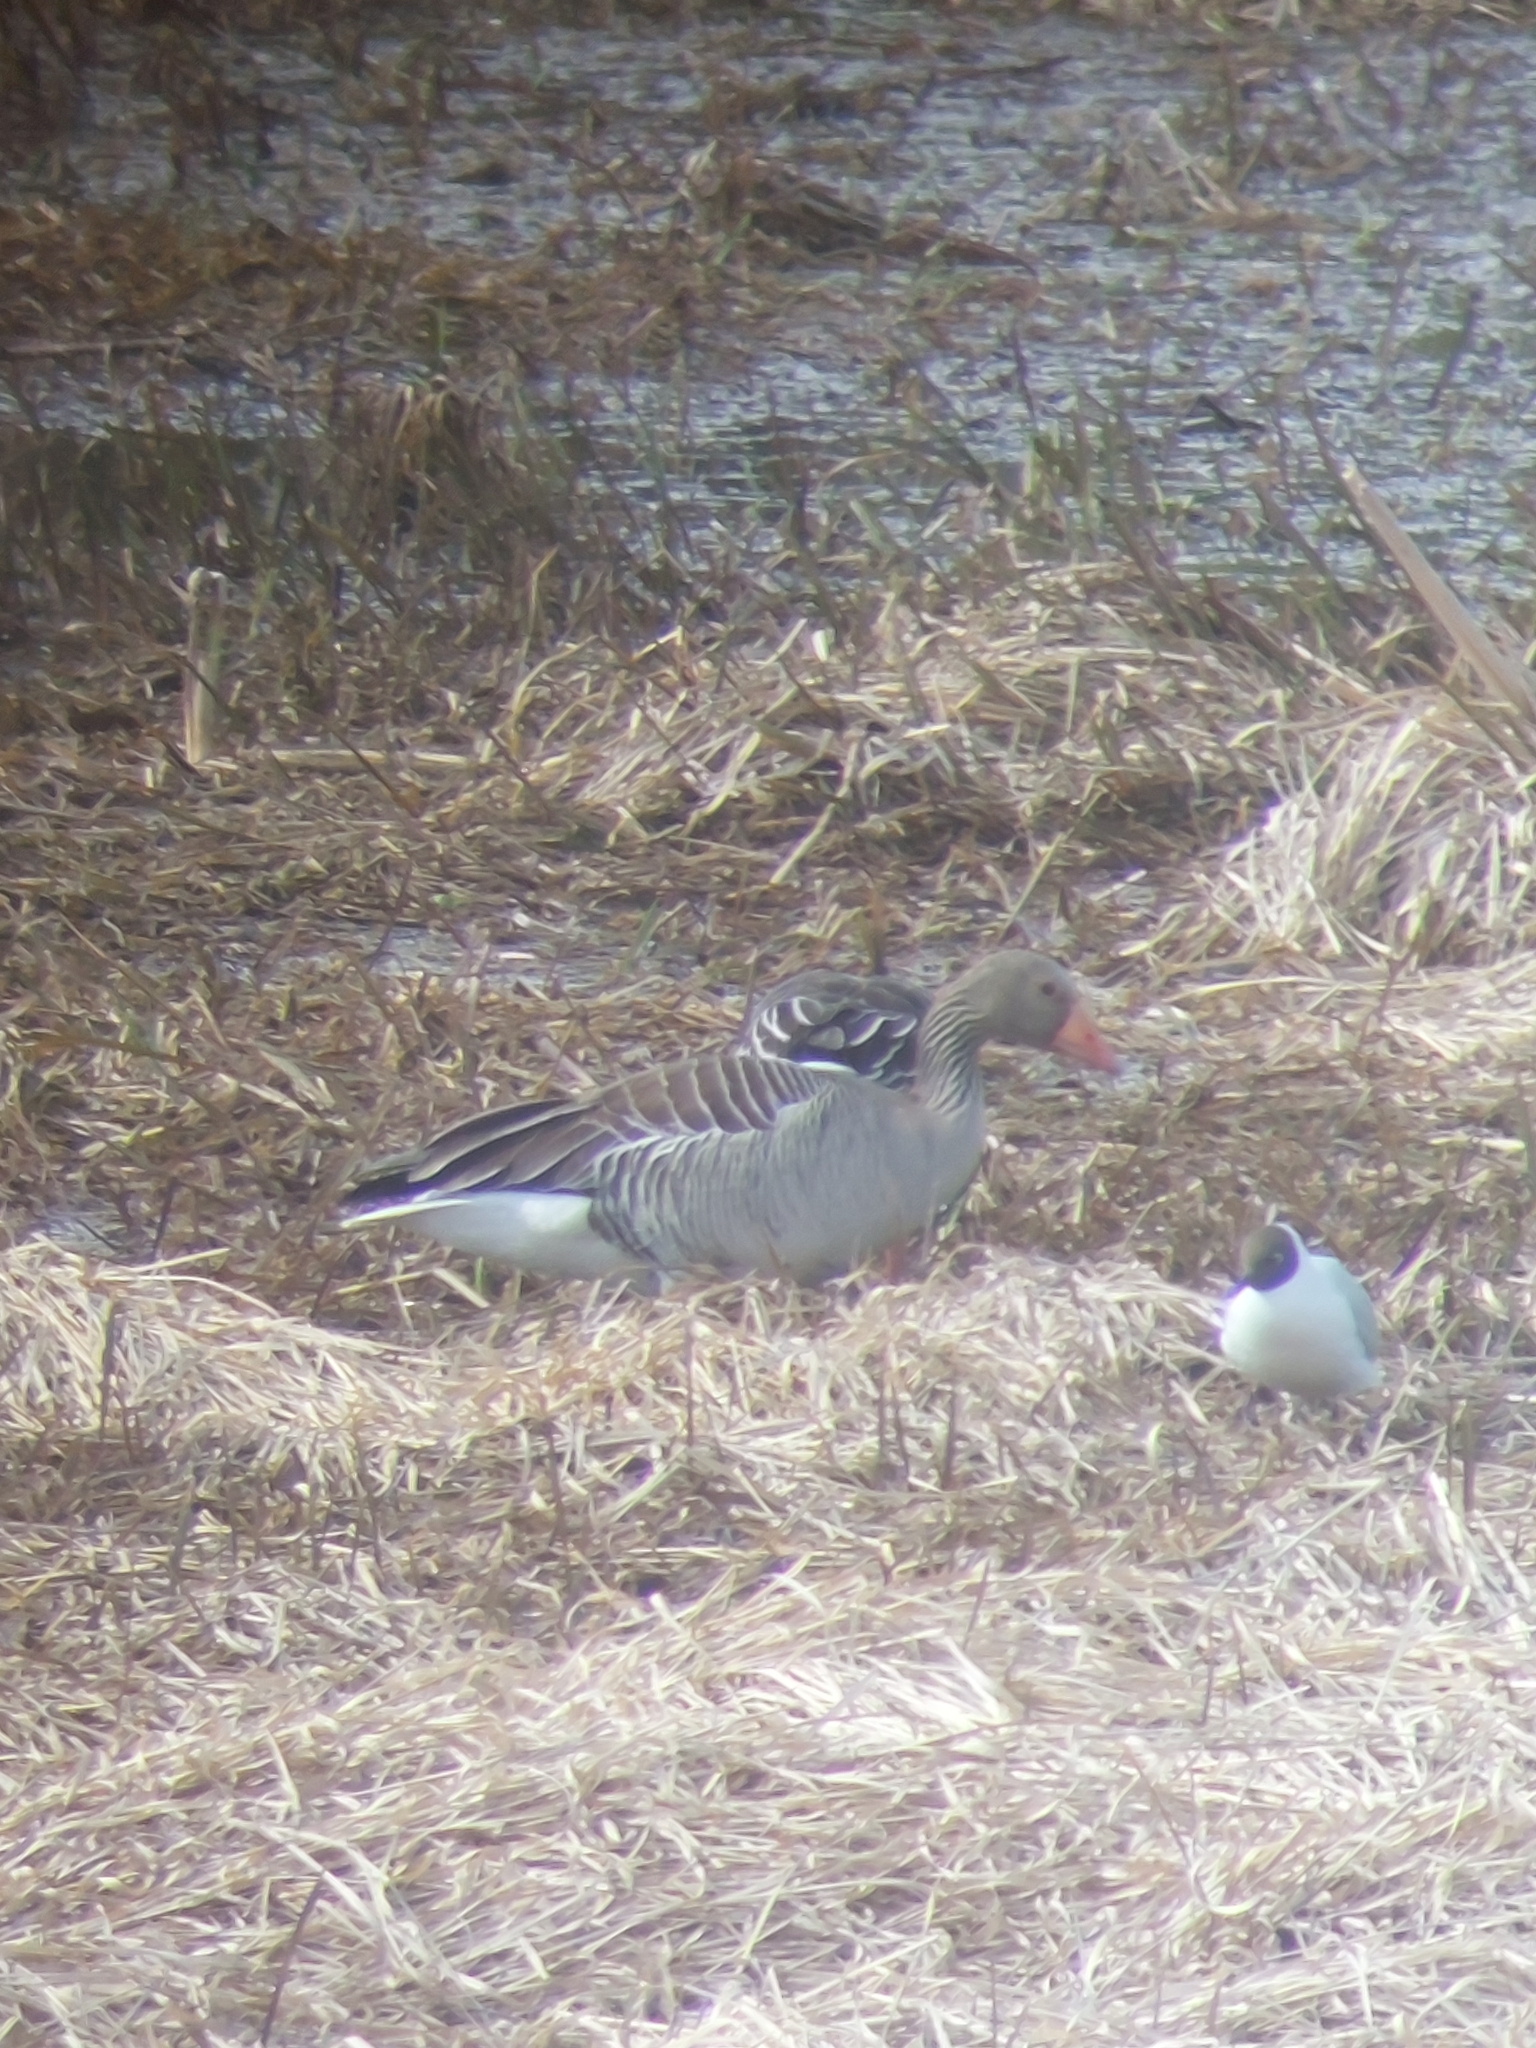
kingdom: Animalia
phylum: Chordata
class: Aves
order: Anseriformes
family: Anatidae
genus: Anser
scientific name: Anser anser
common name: Greylag goose
